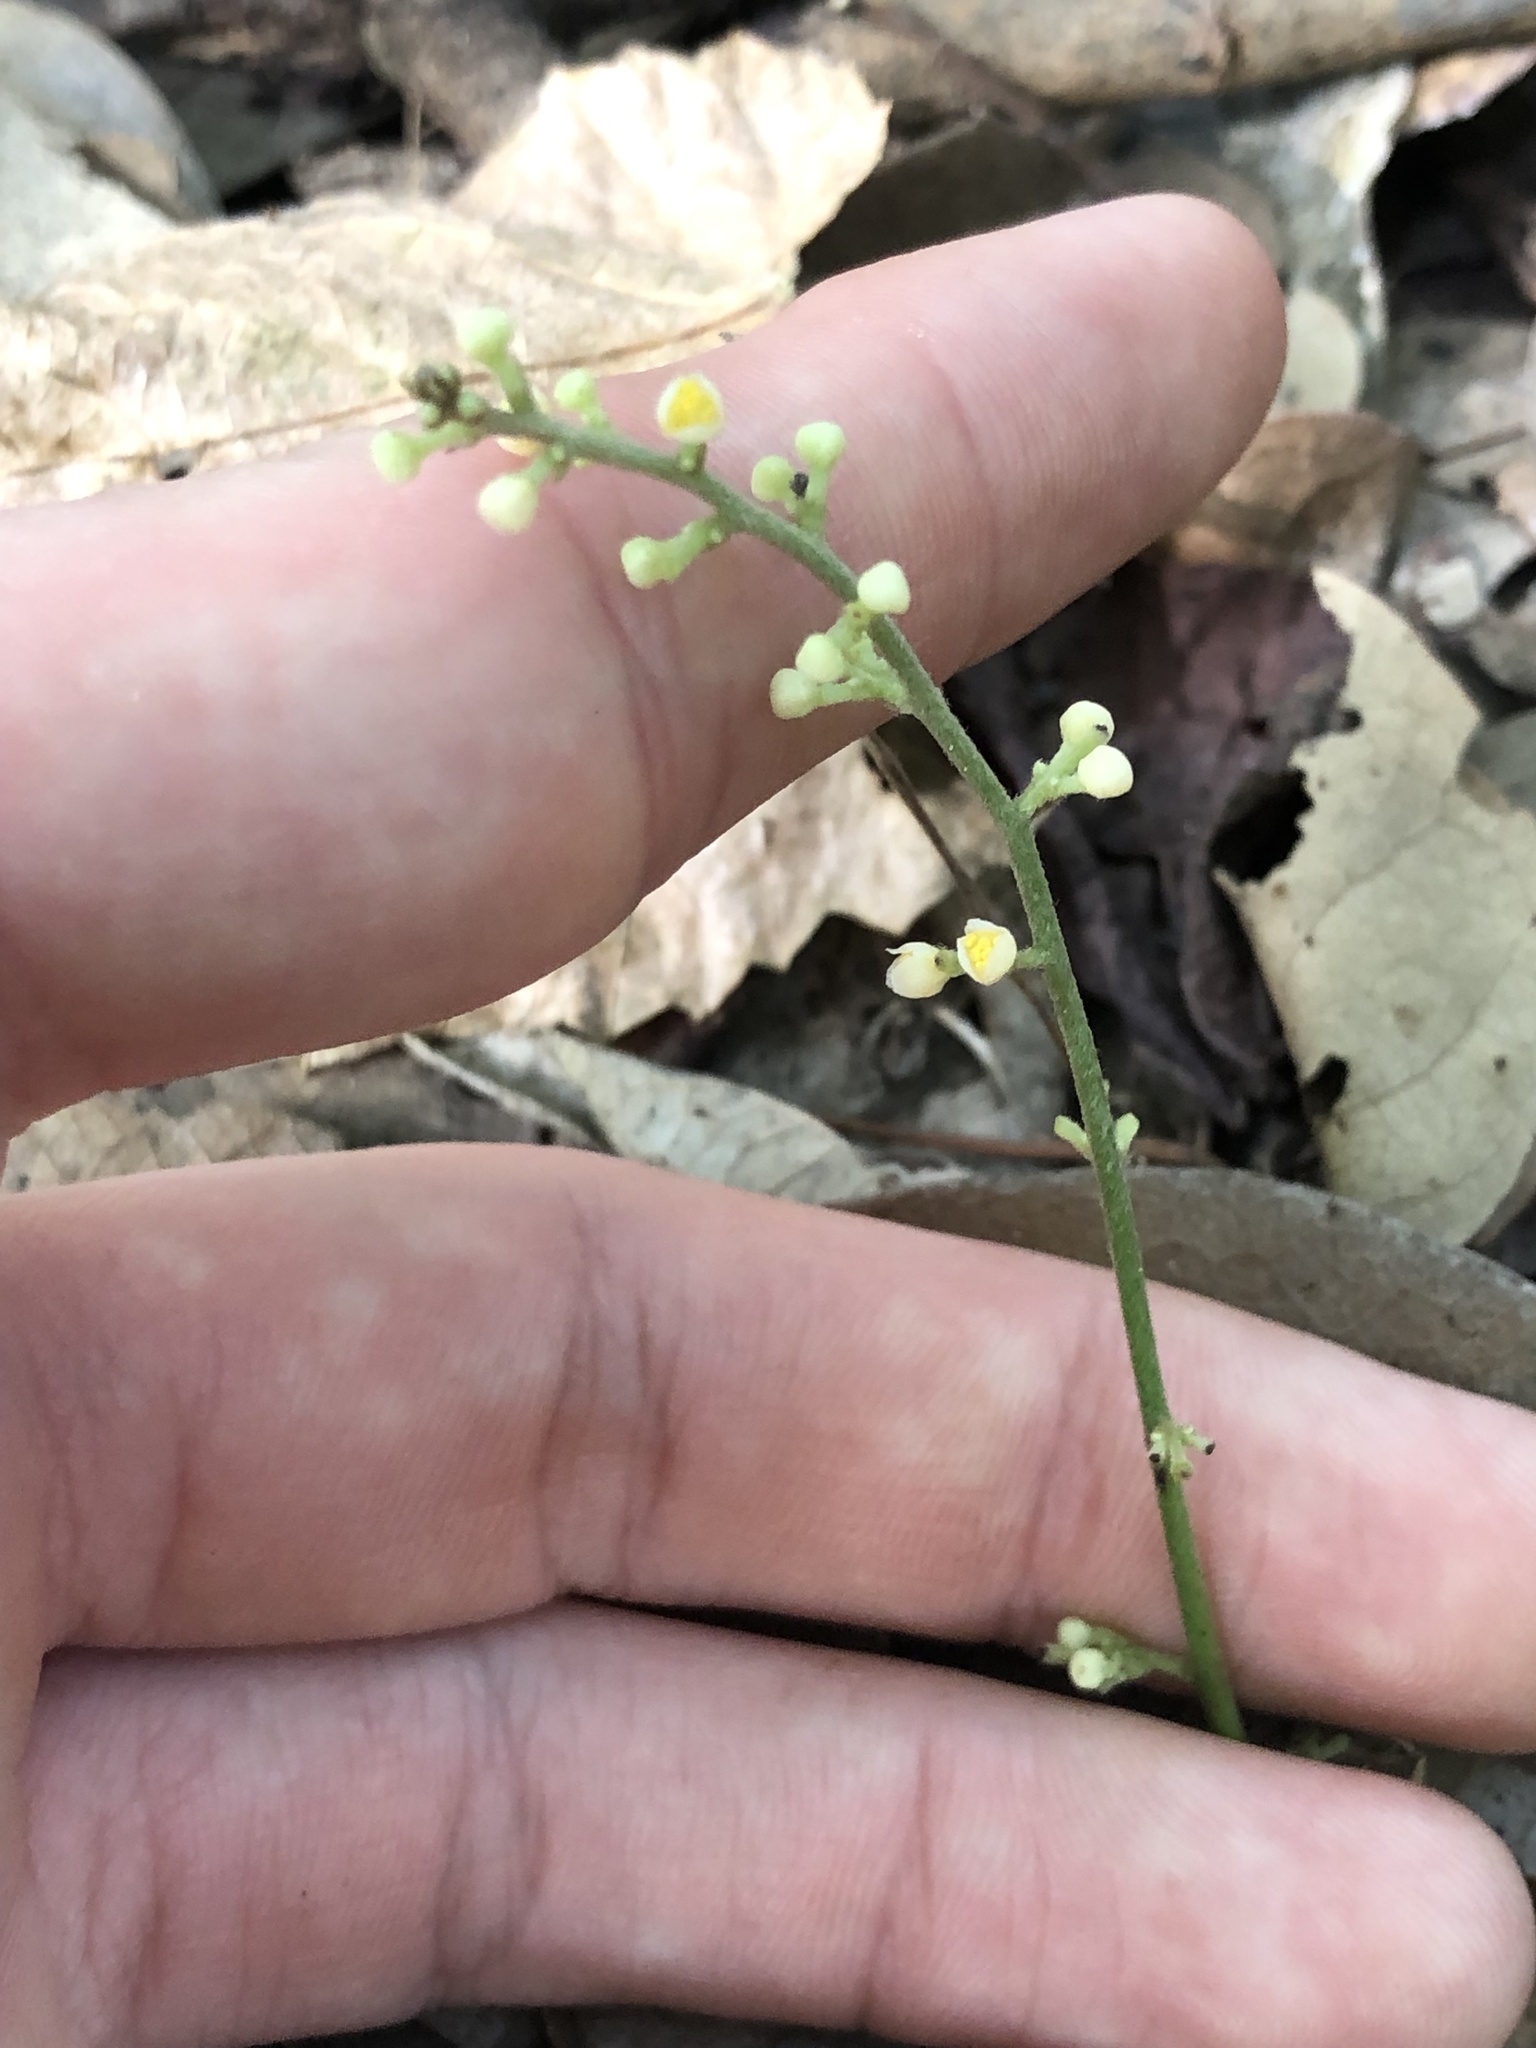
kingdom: Plantae
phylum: Tracheophyta
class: Magnoliopsida
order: Ranunculales
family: Menispermaceae
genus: Cocculus
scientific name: Cocculus carolinus
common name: Carolina moonseed
